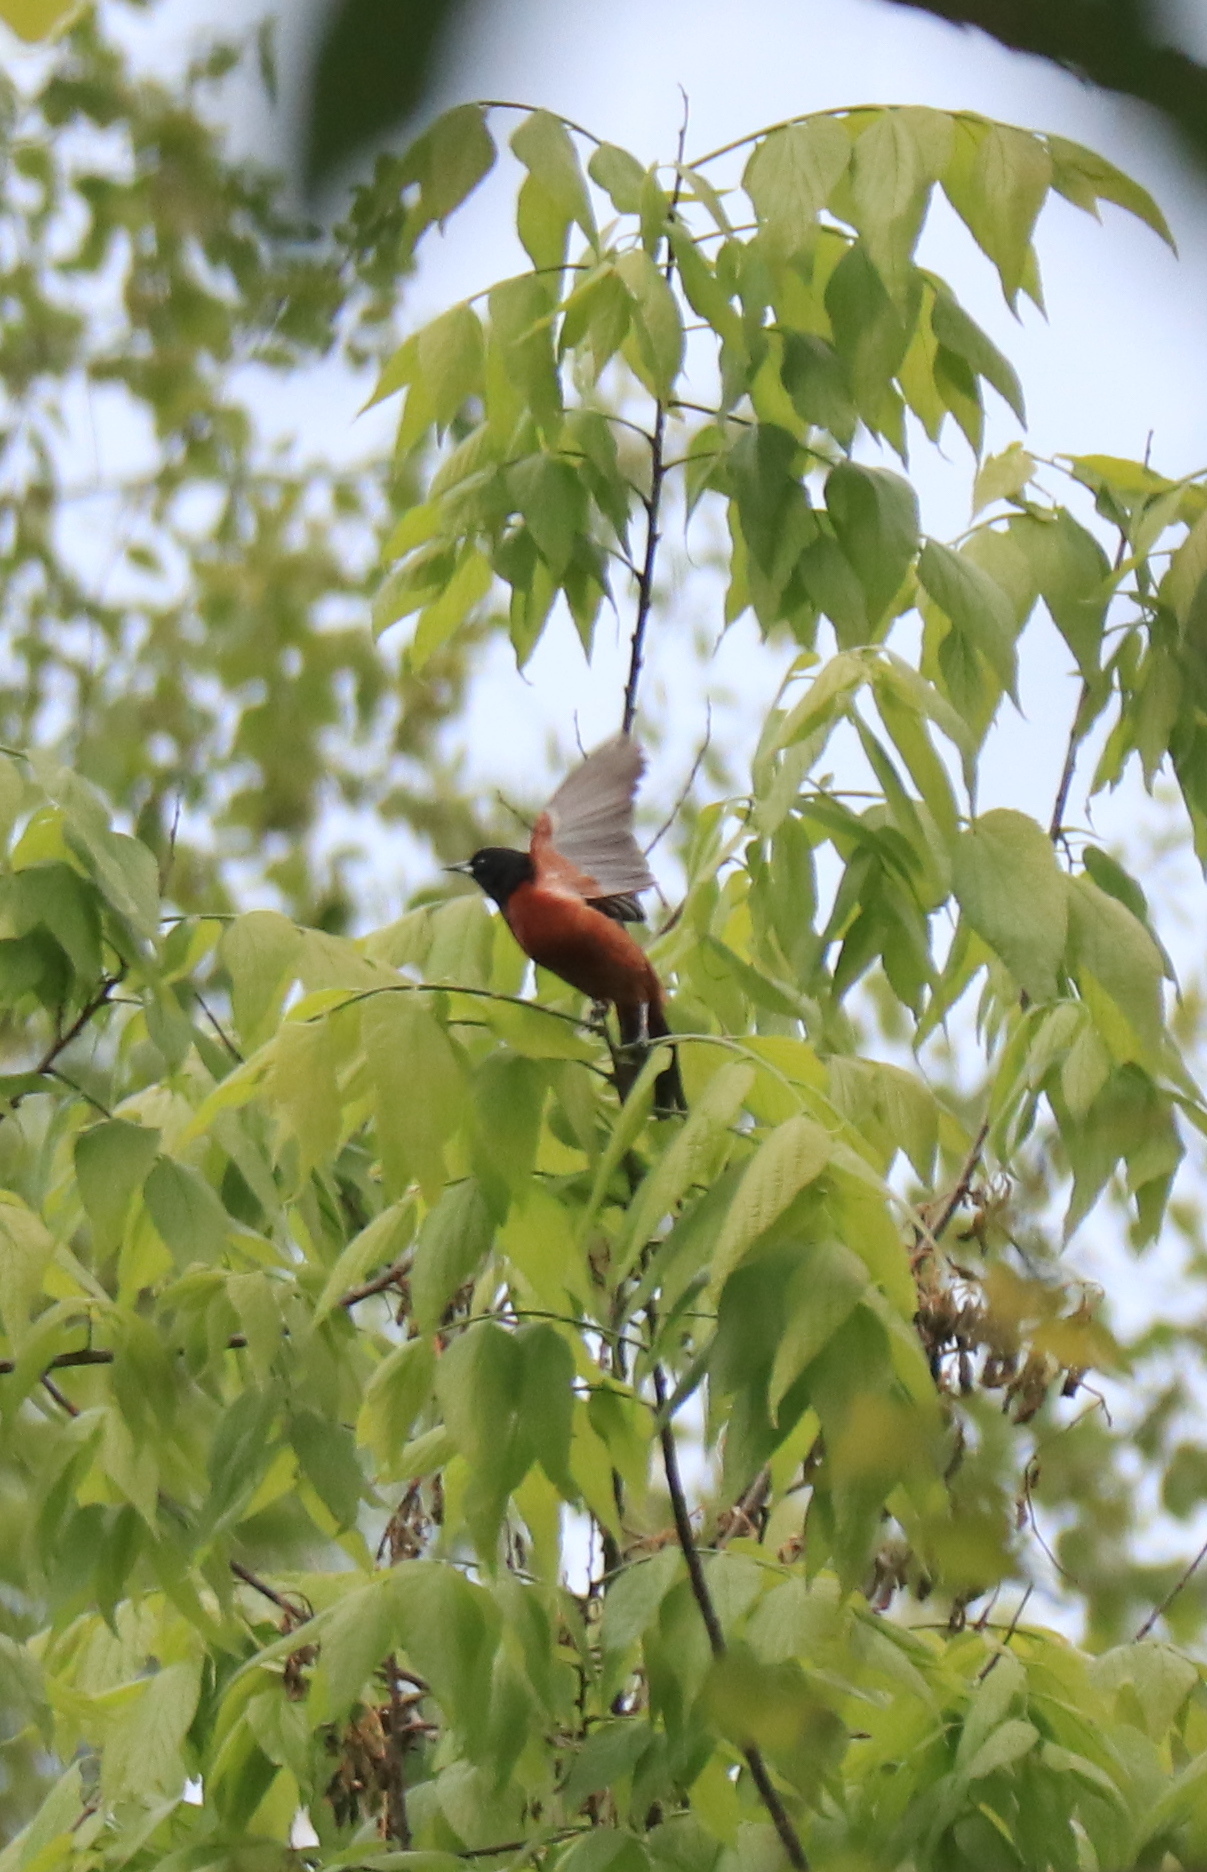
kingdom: Animalia
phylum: Chordata
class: Aves
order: Passeriformes
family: Icteridae
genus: Icterus
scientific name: Icterus spurius
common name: Orchard oriole
